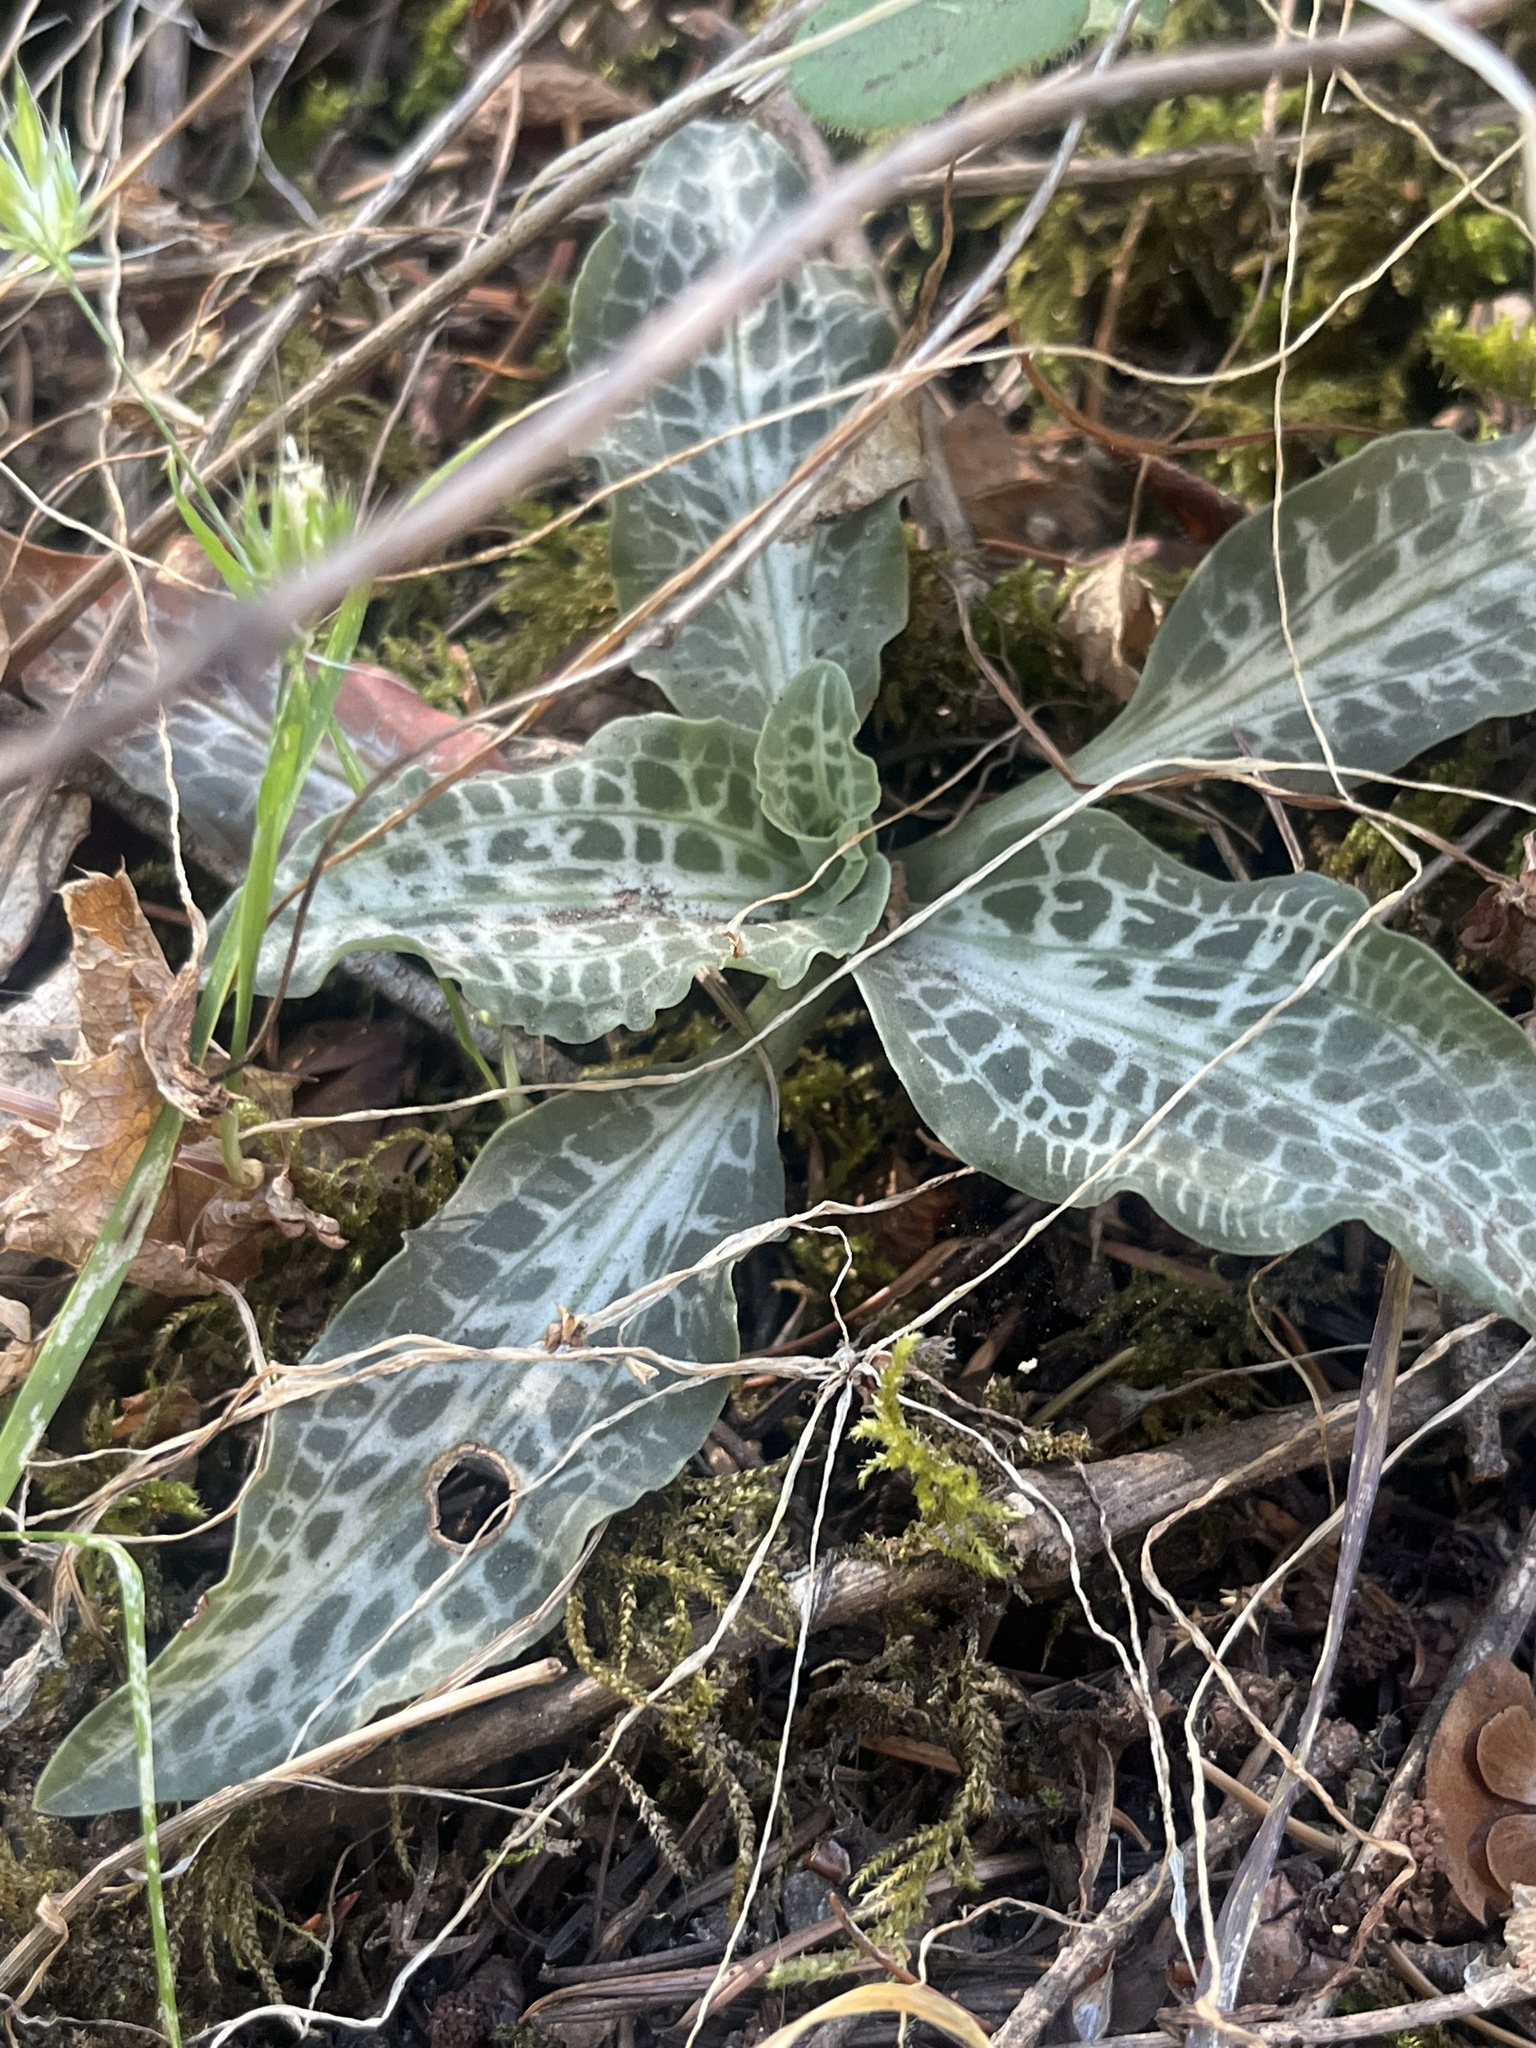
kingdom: Plantae
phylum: Tracheophyta
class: Liliopsida
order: Asparagales
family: Orchidaceae
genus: Goodyera
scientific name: Goodyera oblongifolia
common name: Giant rattlesnake-plantain
